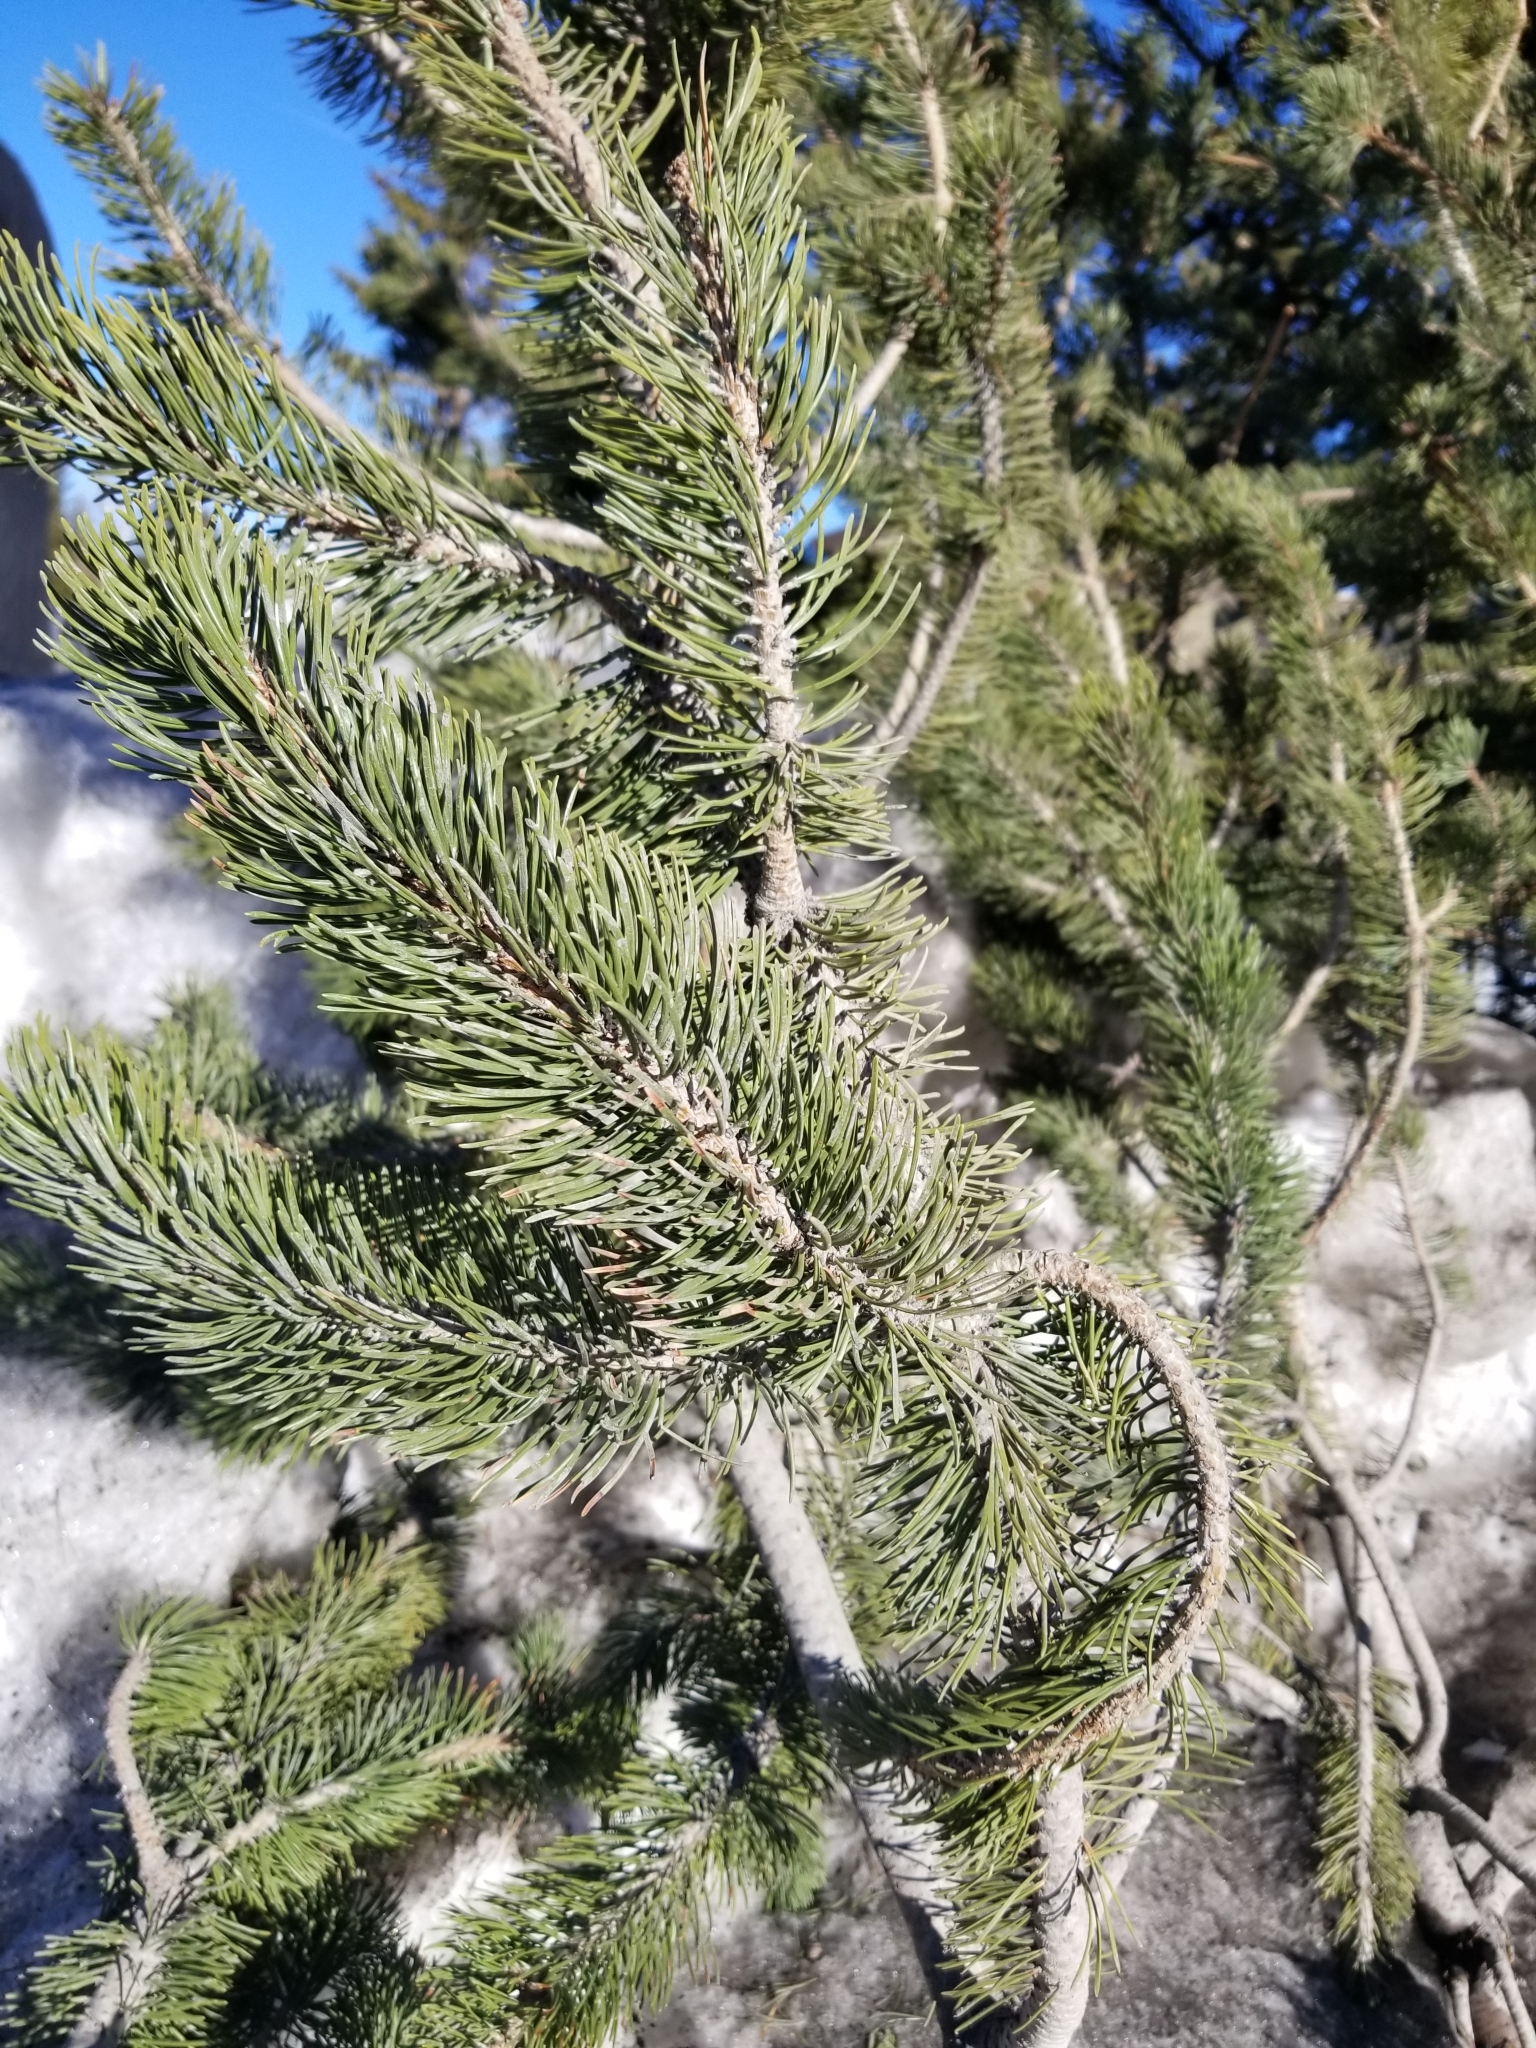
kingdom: Plantae
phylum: Tracheophyta
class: Pinopsida
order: Pinales
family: Pinaceae
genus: Pinus
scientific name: Pinus contorta
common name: Lodgepole pine
